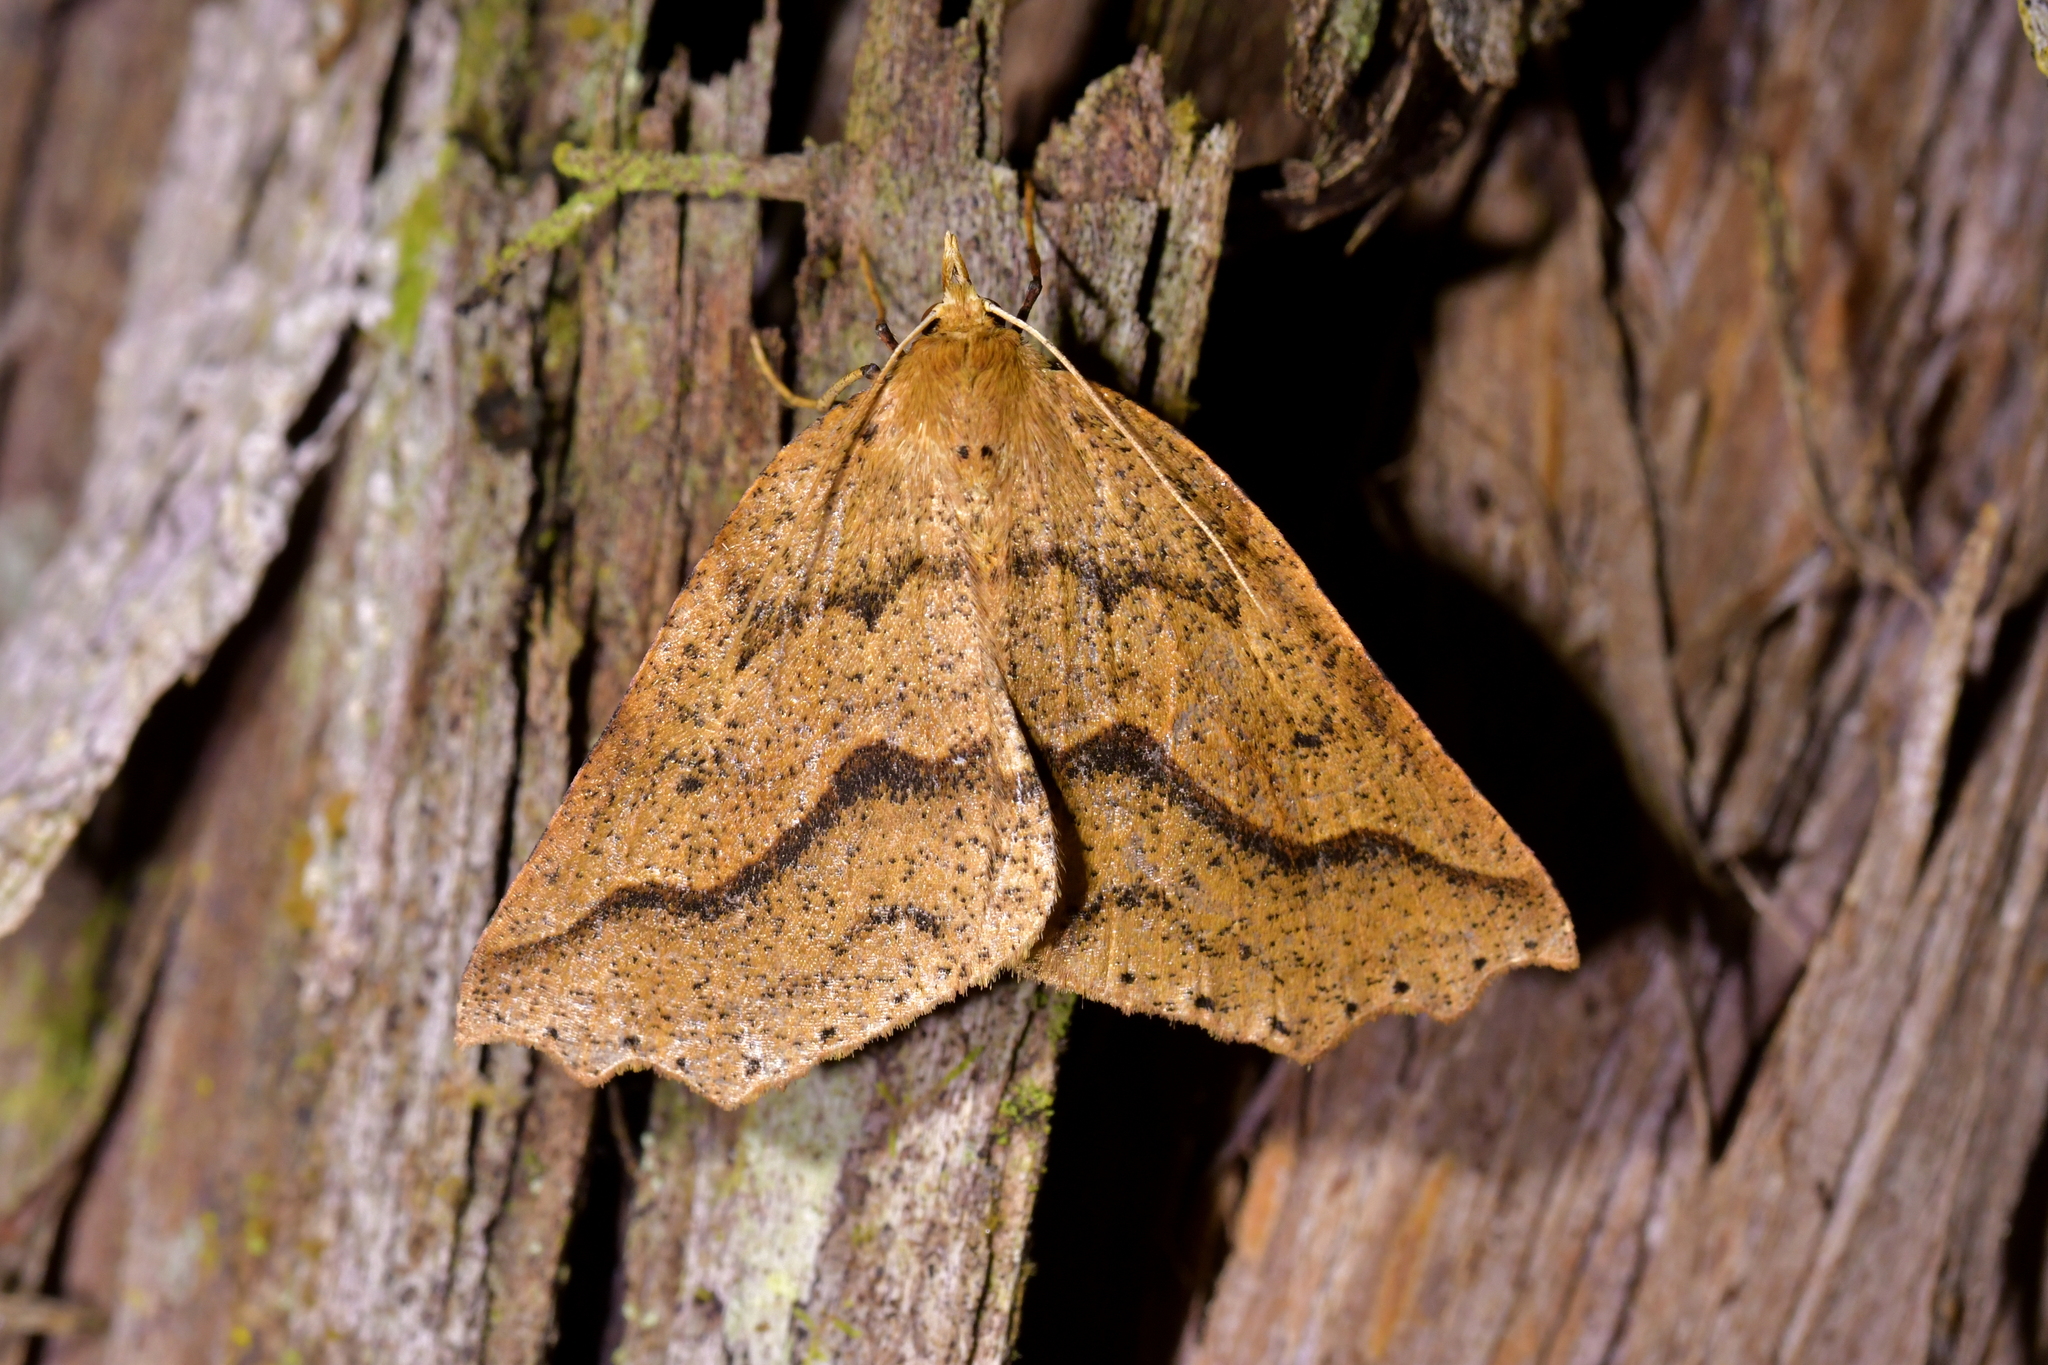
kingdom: Animalia
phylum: Arthropoda
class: Insecta
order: Lepidoptera
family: Geometridae
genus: Ischalis
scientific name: Ischalis variabilis
